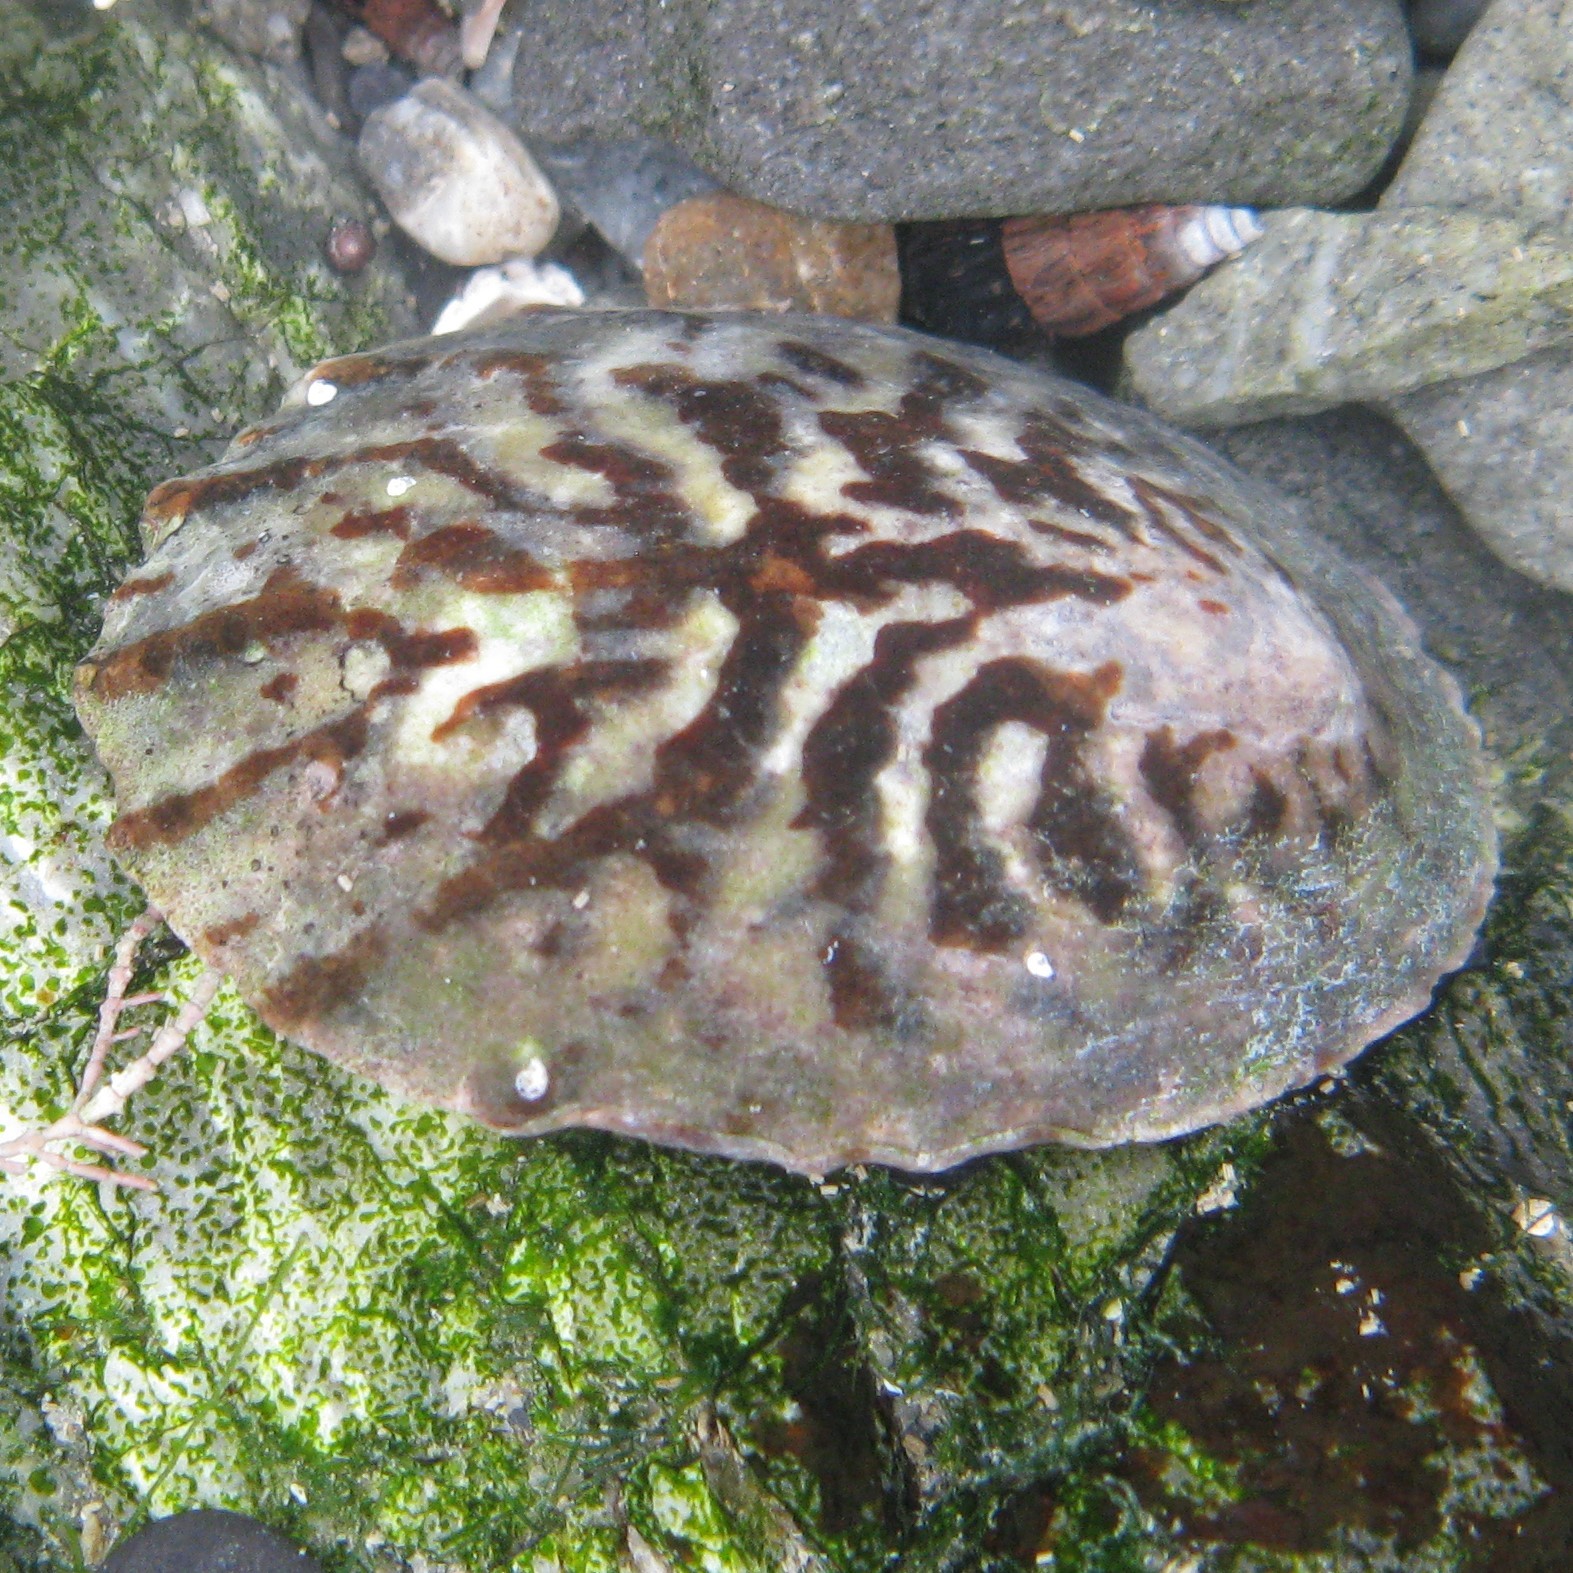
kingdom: Animalia
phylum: Mollusca
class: Gastropoda
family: Nacellidae
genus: Cellana
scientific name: Cellana radians
